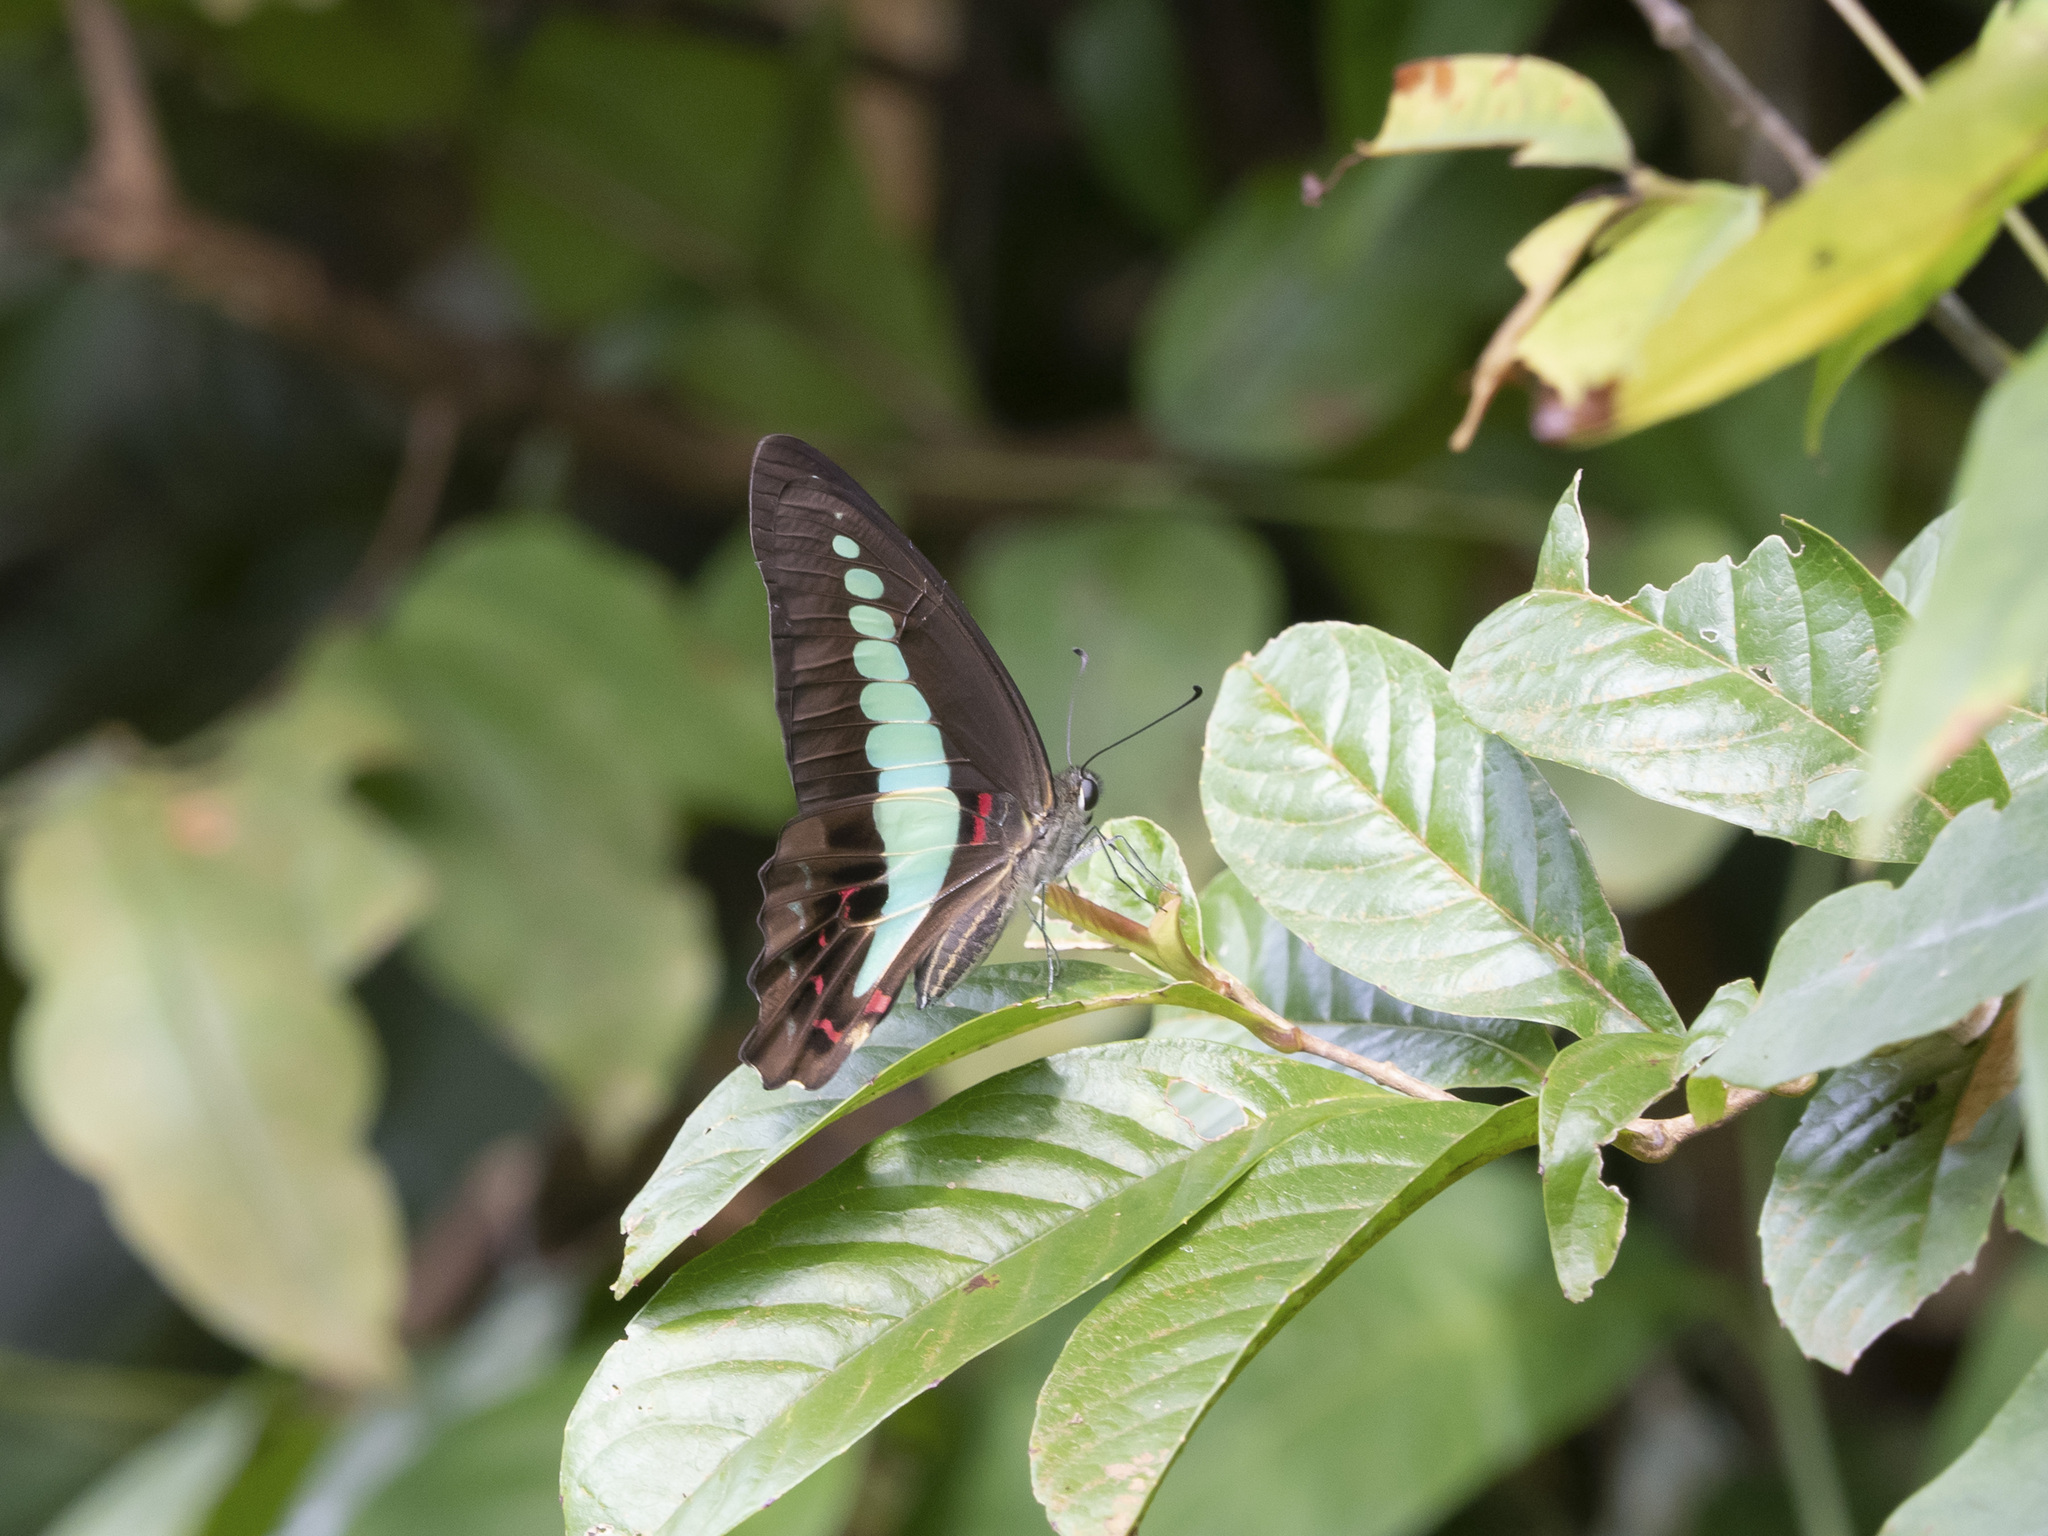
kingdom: Fungi
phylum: Ascomycota
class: Sordariomycetes
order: Microascales
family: Microascaceae
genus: Graphium
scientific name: Graphium sarpedon
